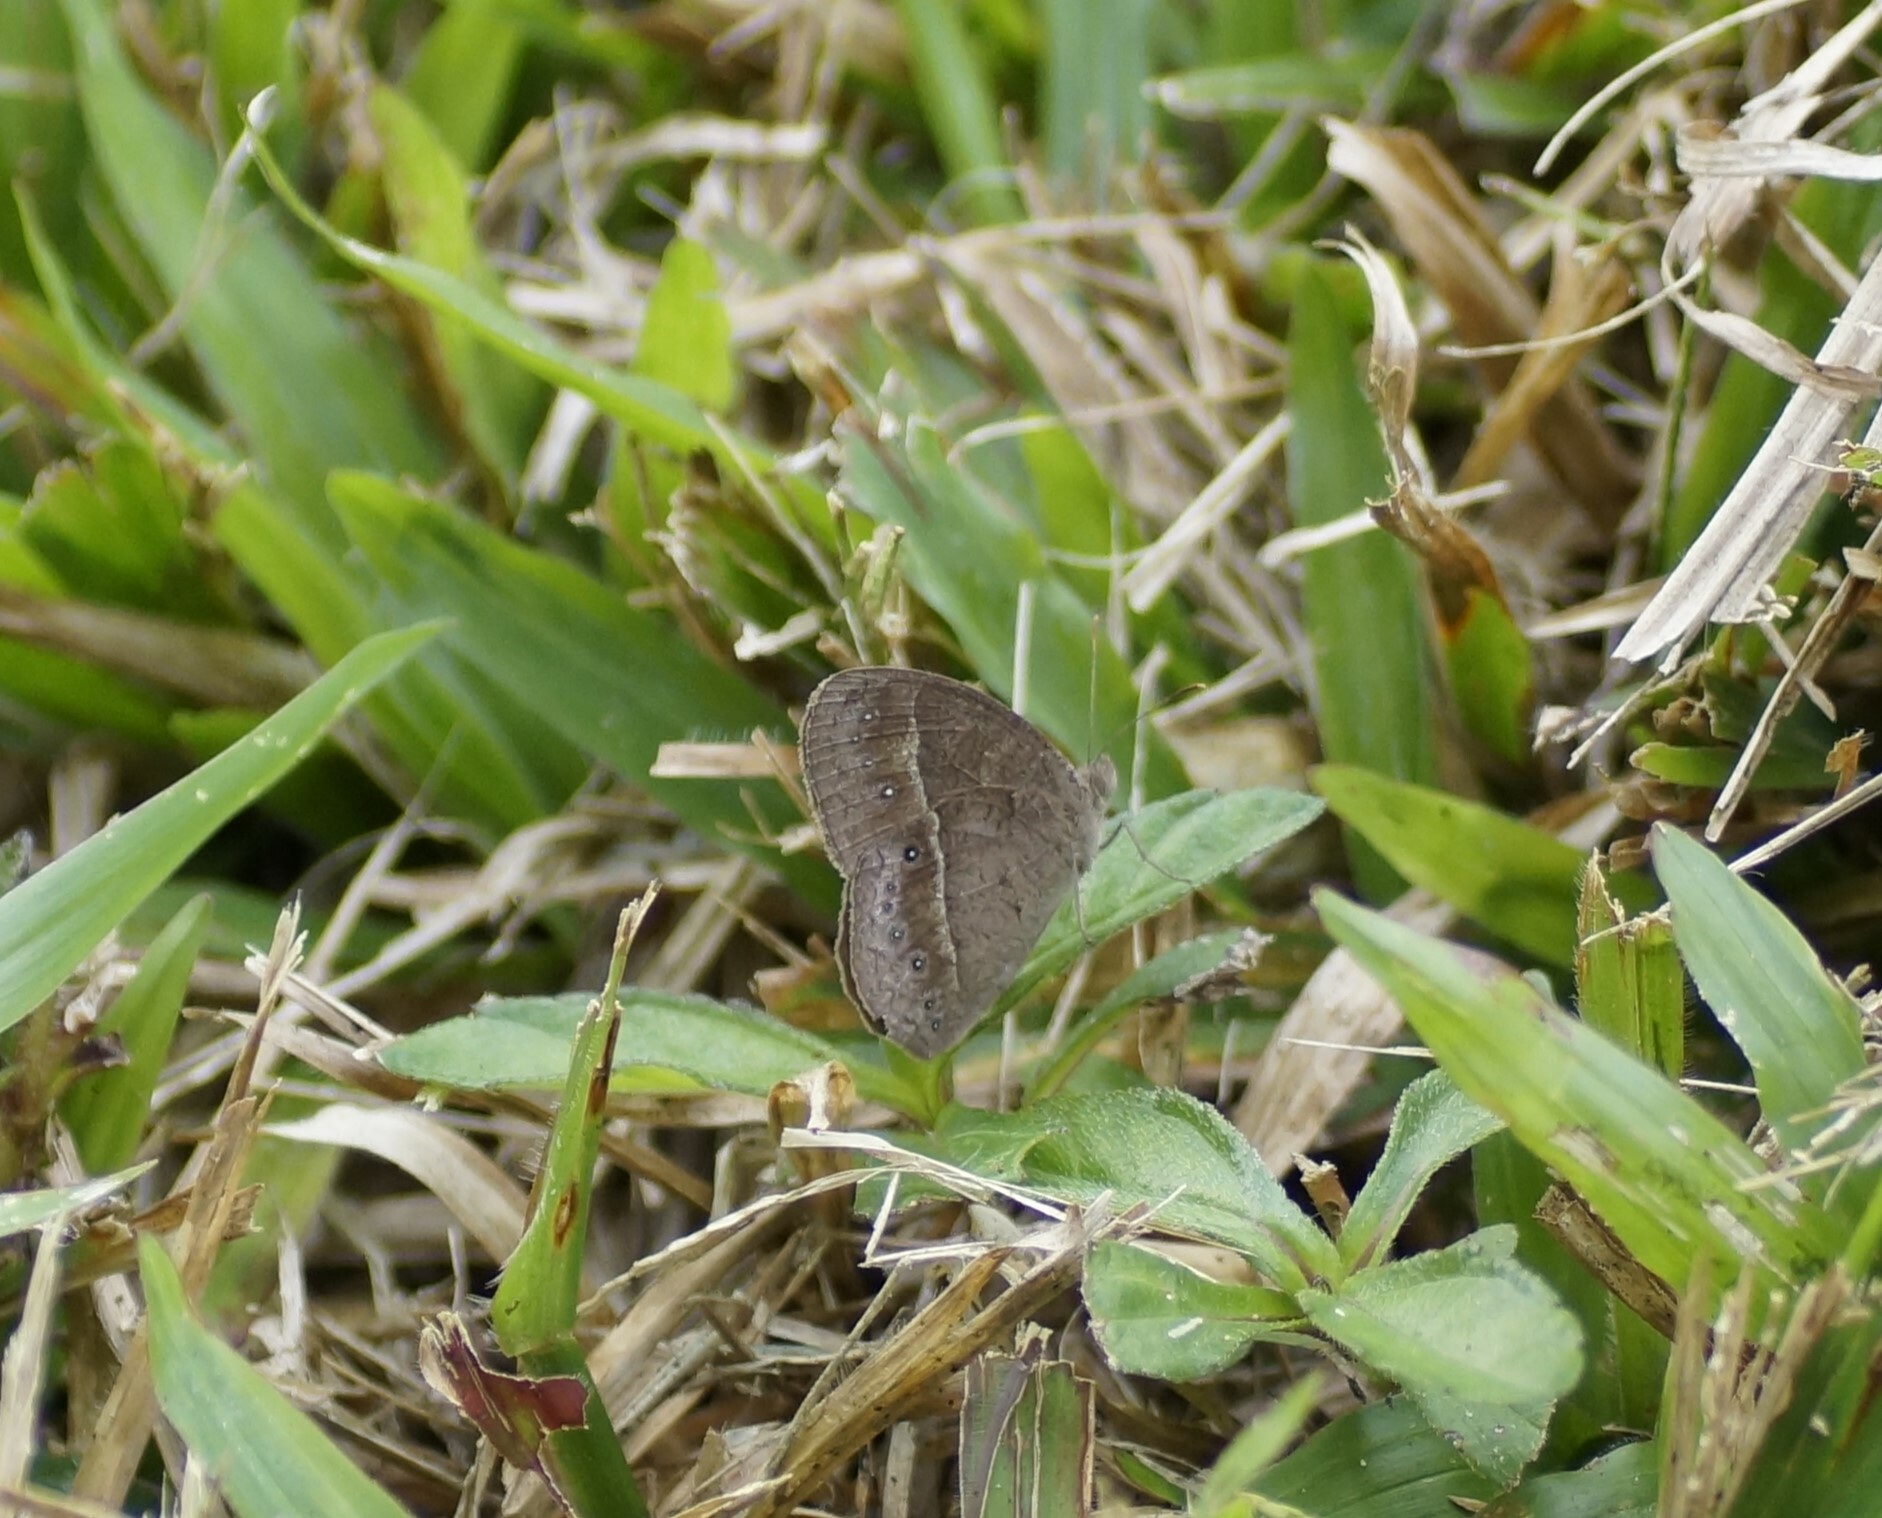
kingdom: Animalia
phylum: Arthropoda
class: Insecta
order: Lepidoptera
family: Nymphalidae
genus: Mycalesis
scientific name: Mycalesis perseus
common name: Dingy bushbrown
